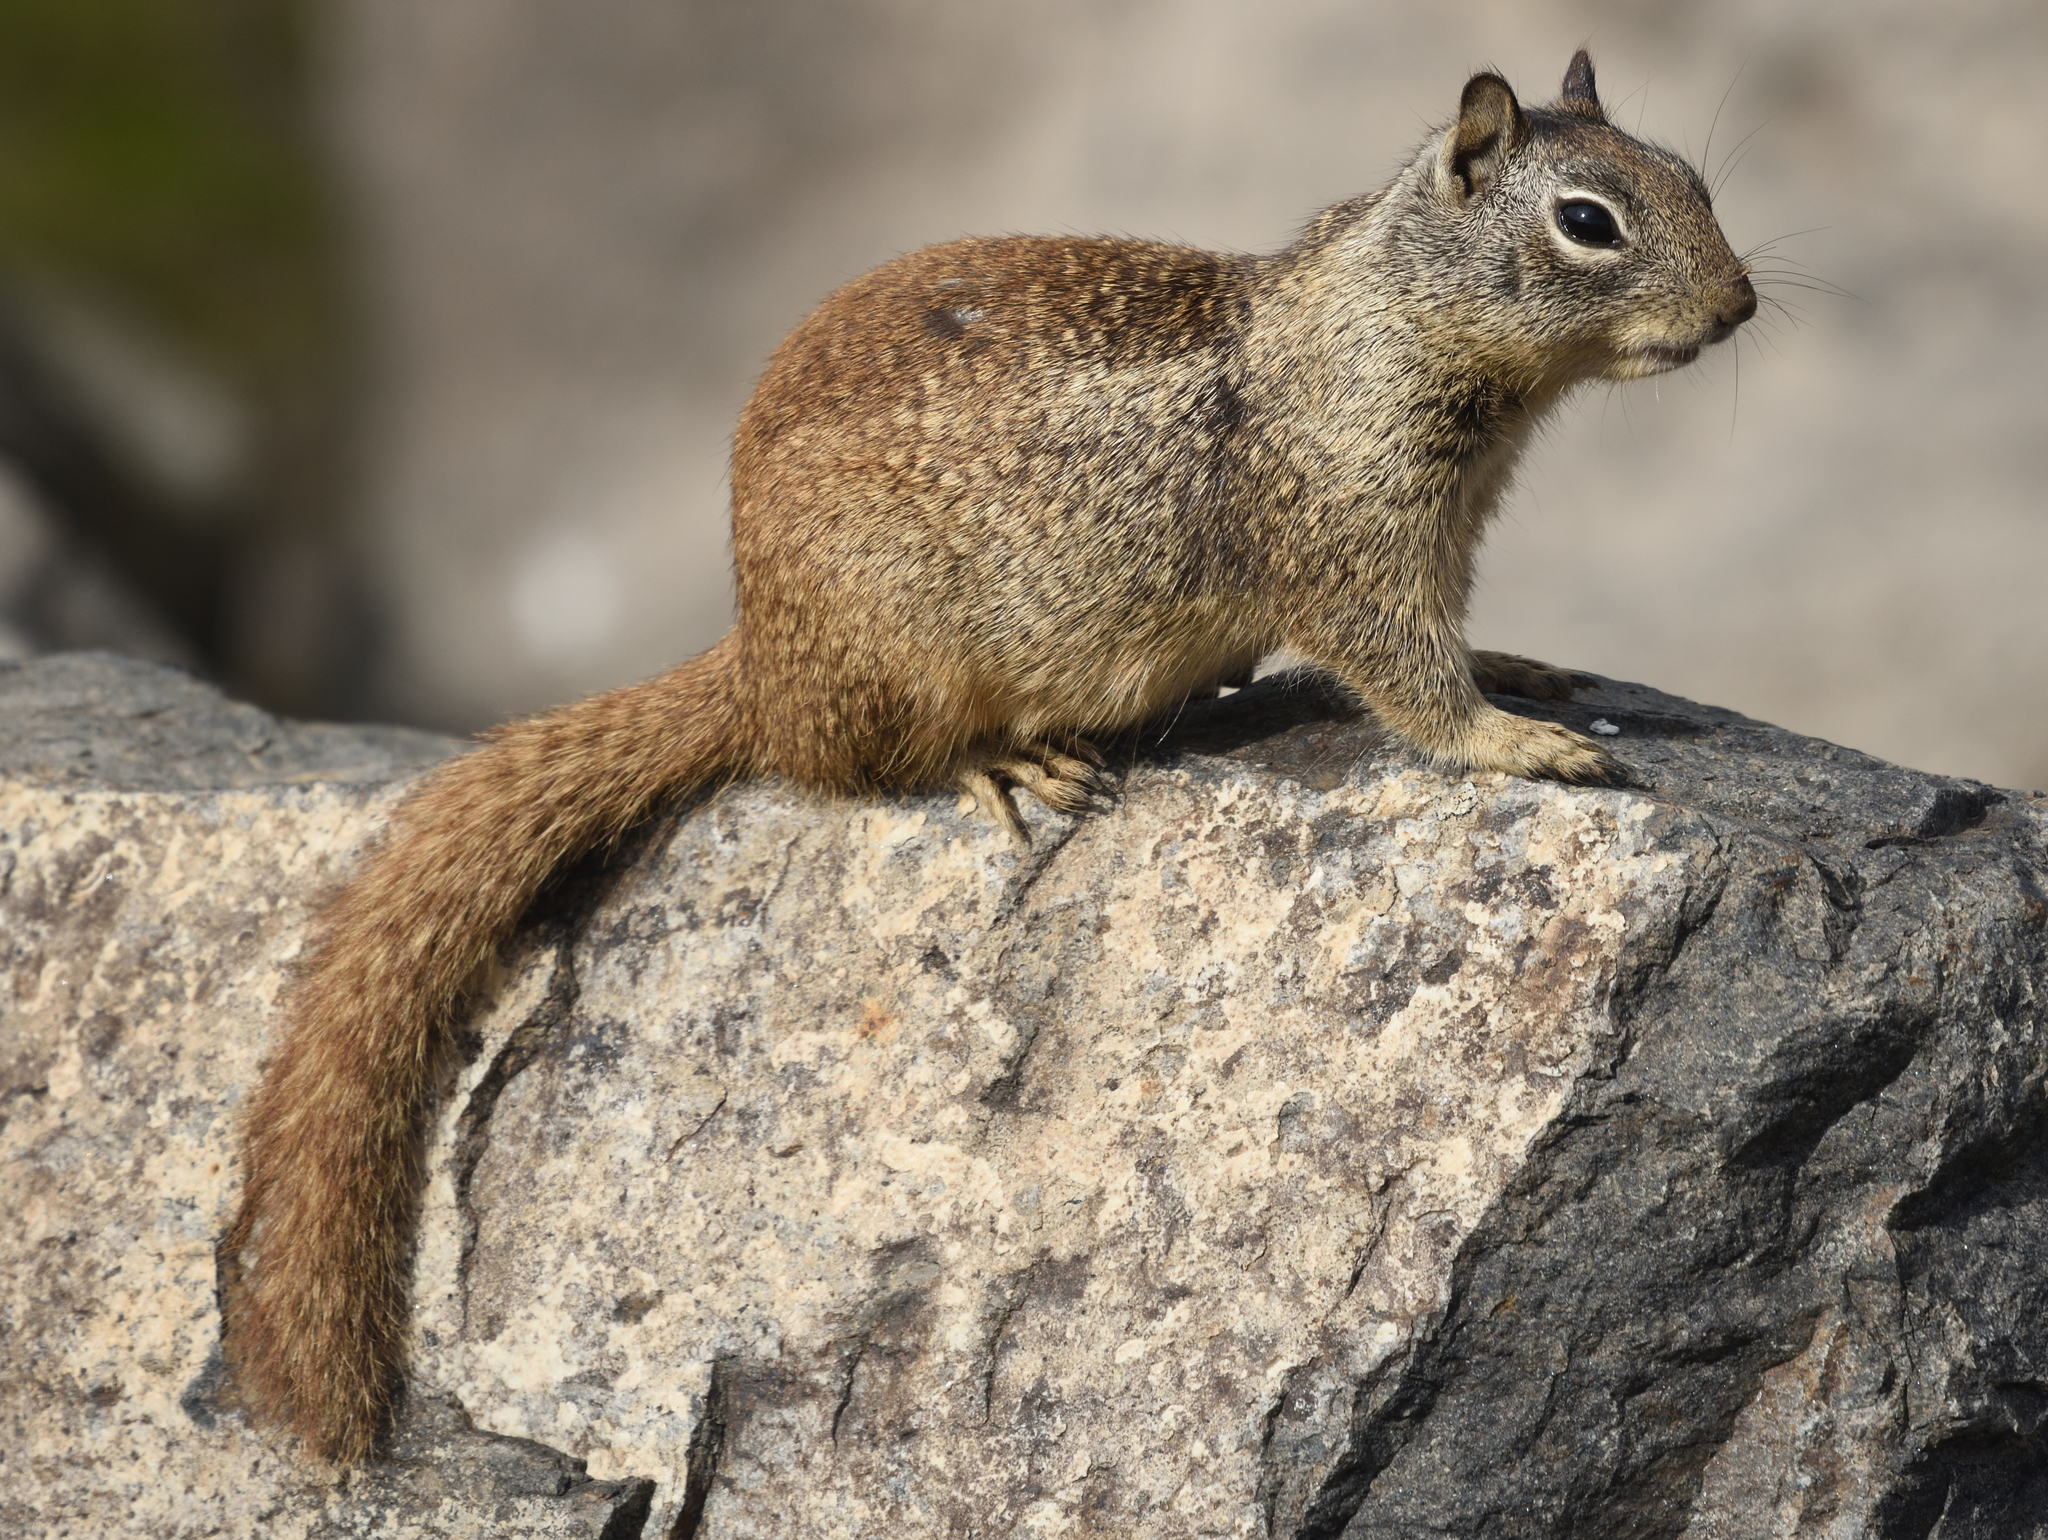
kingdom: Animalia
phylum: Chordata
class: Mammalia
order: Rodentia
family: Sciuridae
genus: Otospermophilus
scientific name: Otospermophilus beecheyi
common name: California ground squirrel
